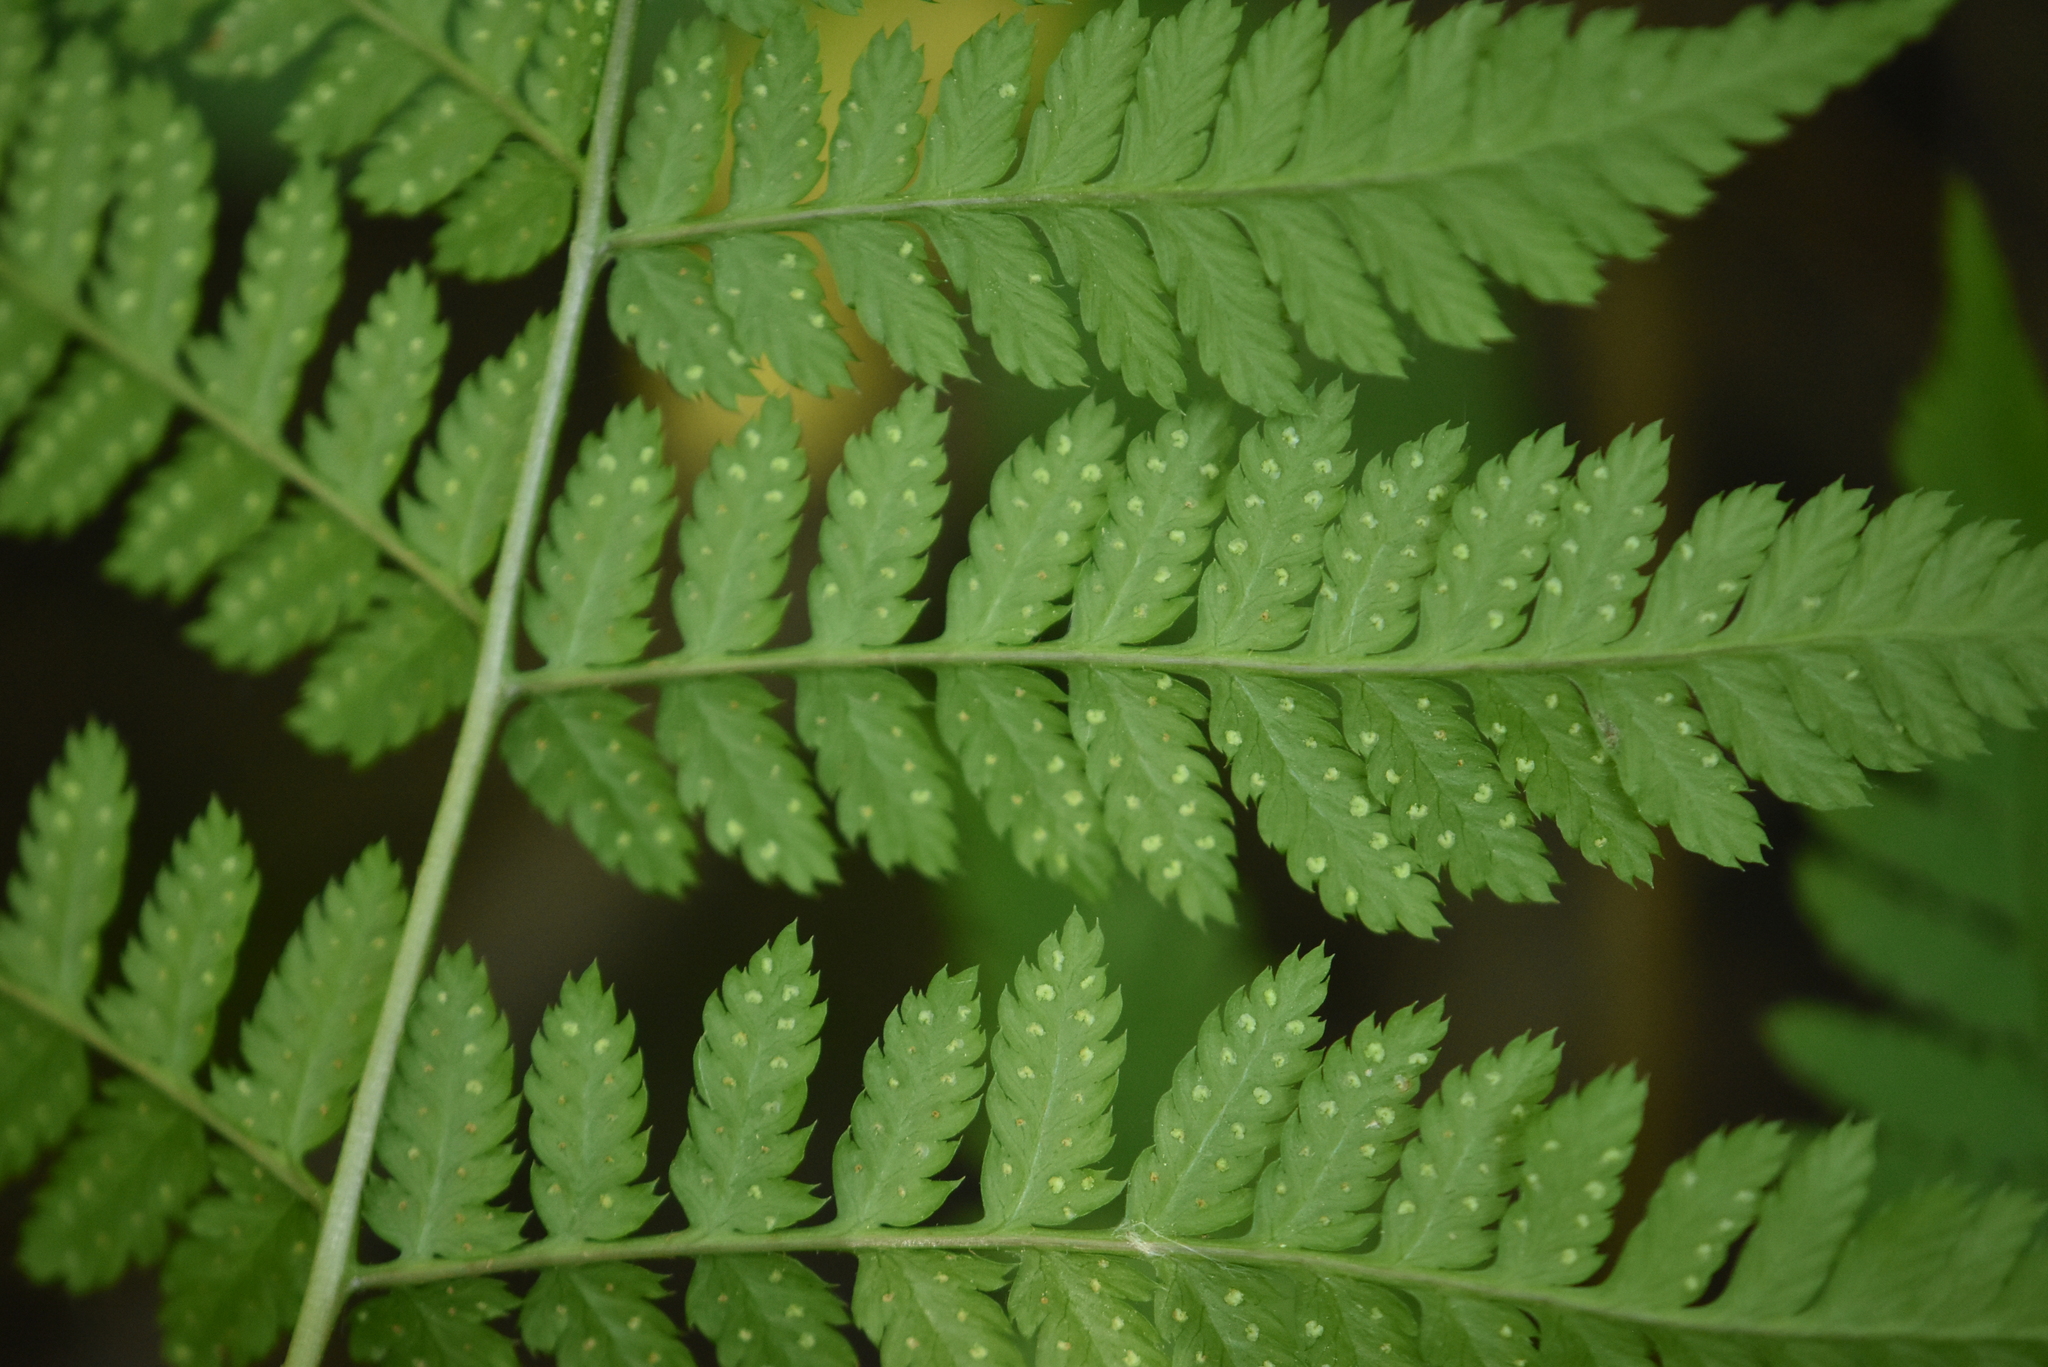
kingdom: Plantae
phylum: Tracheophyta
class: Polypodiopsida
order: Polypodiales
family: Dryopteridaceae
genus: Dryopteris
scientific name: Dryopteris carthusiana
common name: Narrow buckler-fern
